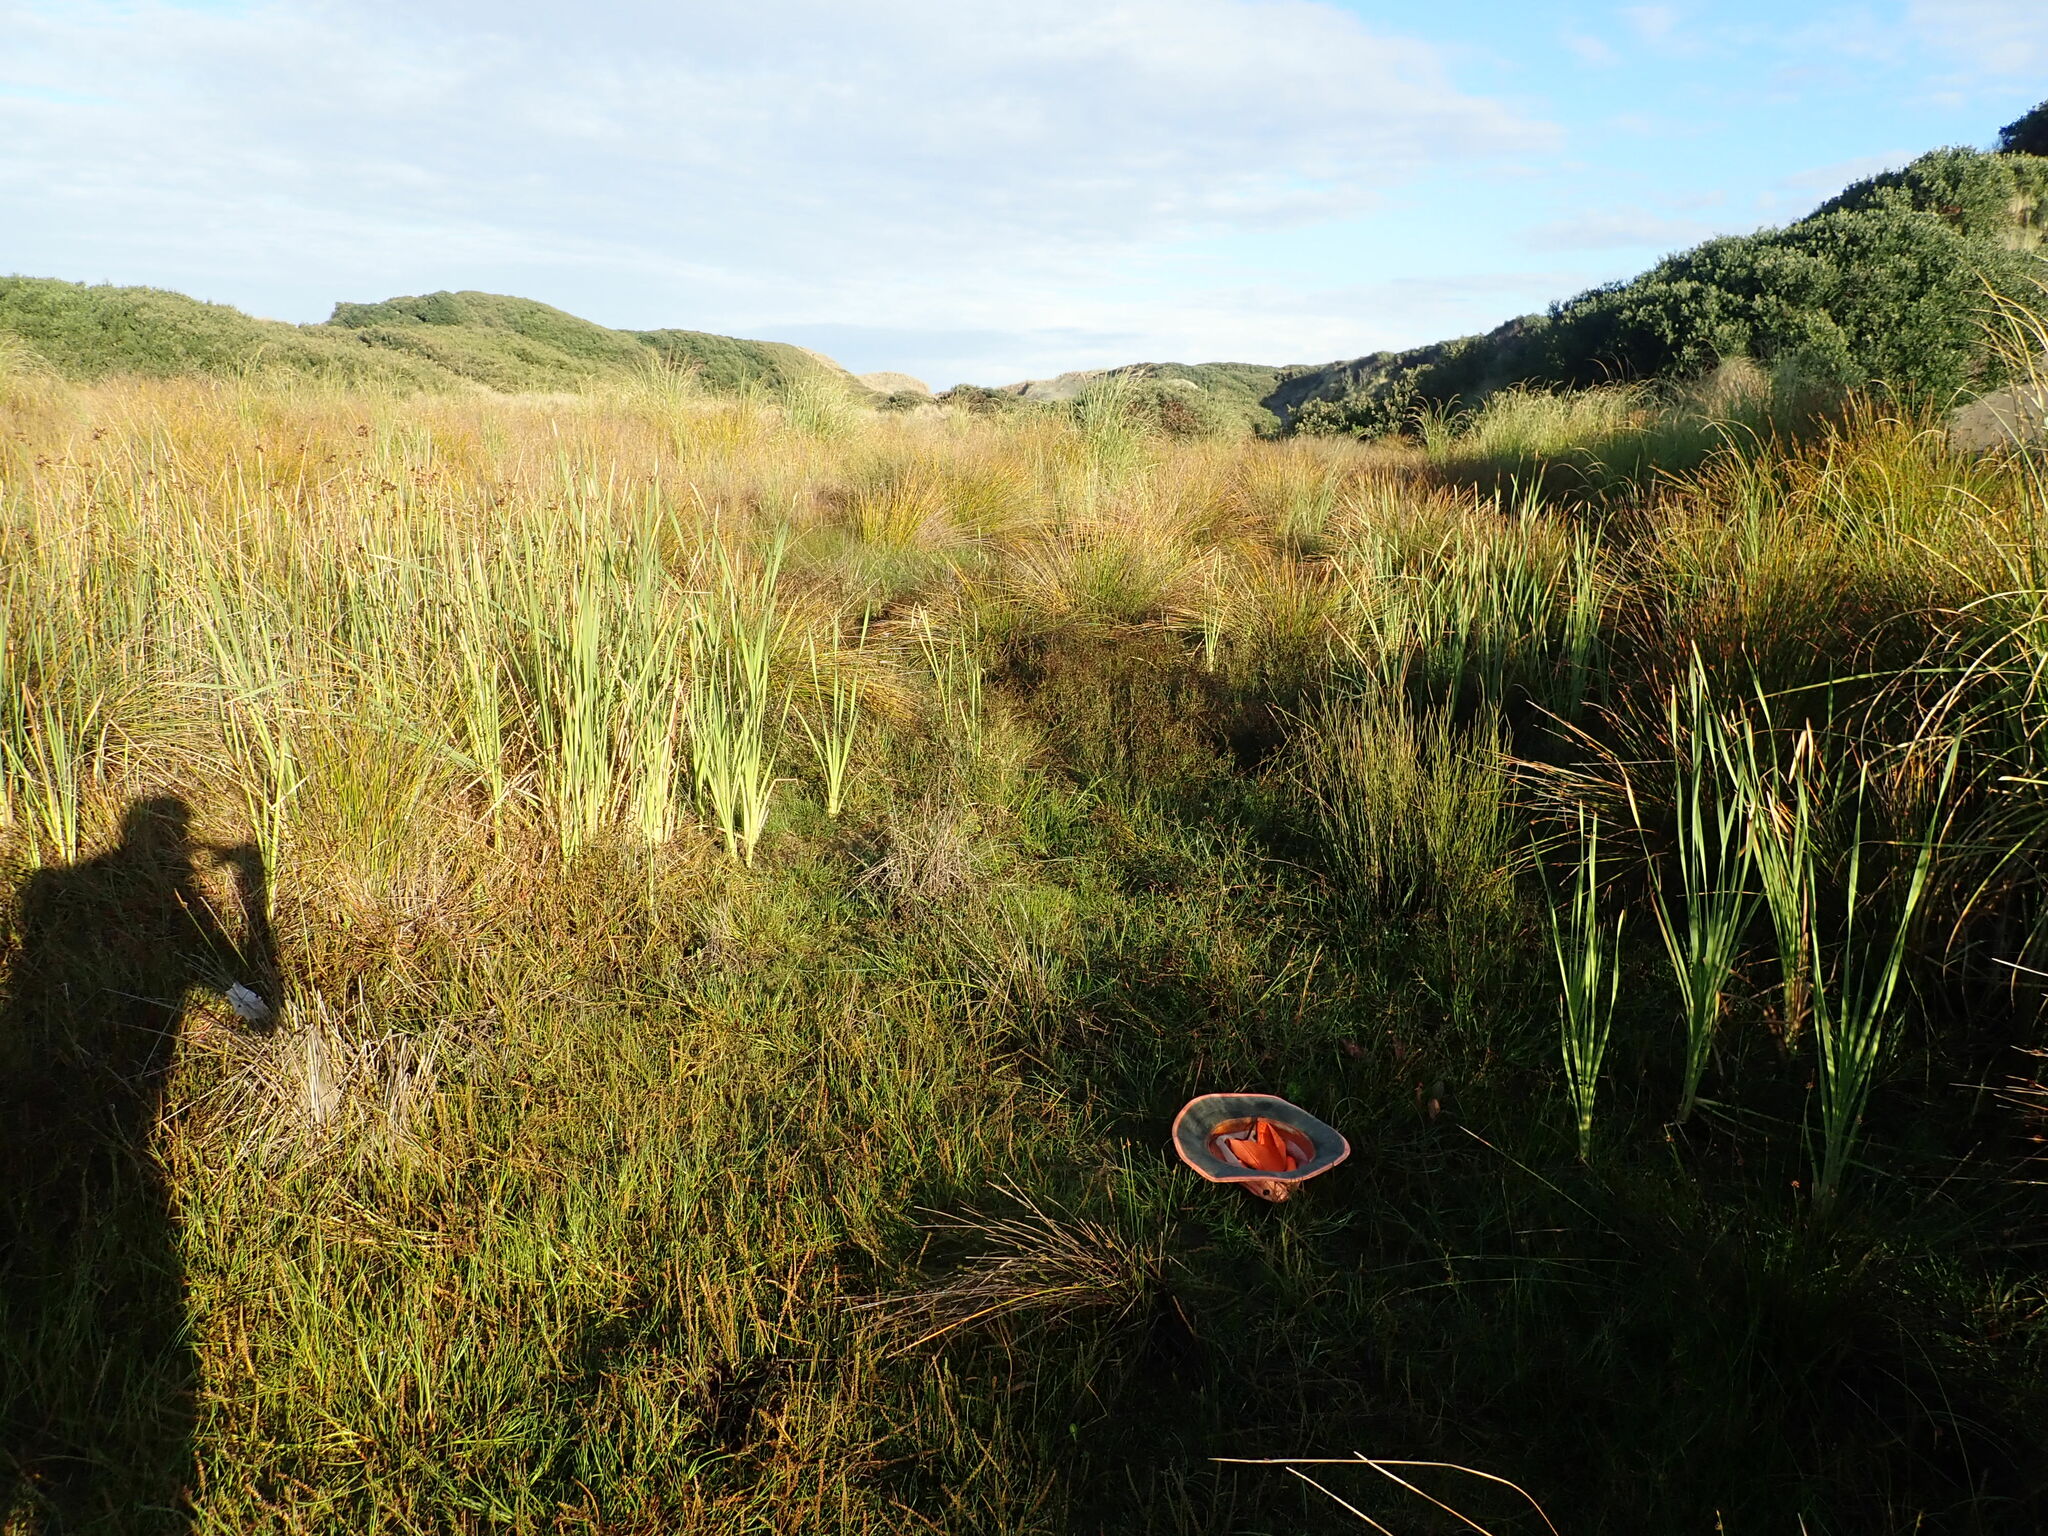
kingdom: Plantae
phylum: Tracheophyta
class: Magnoliopsida
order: Myrtales
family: Onagraceae
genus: Epilobium
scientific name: Epilobium billardiereanum
